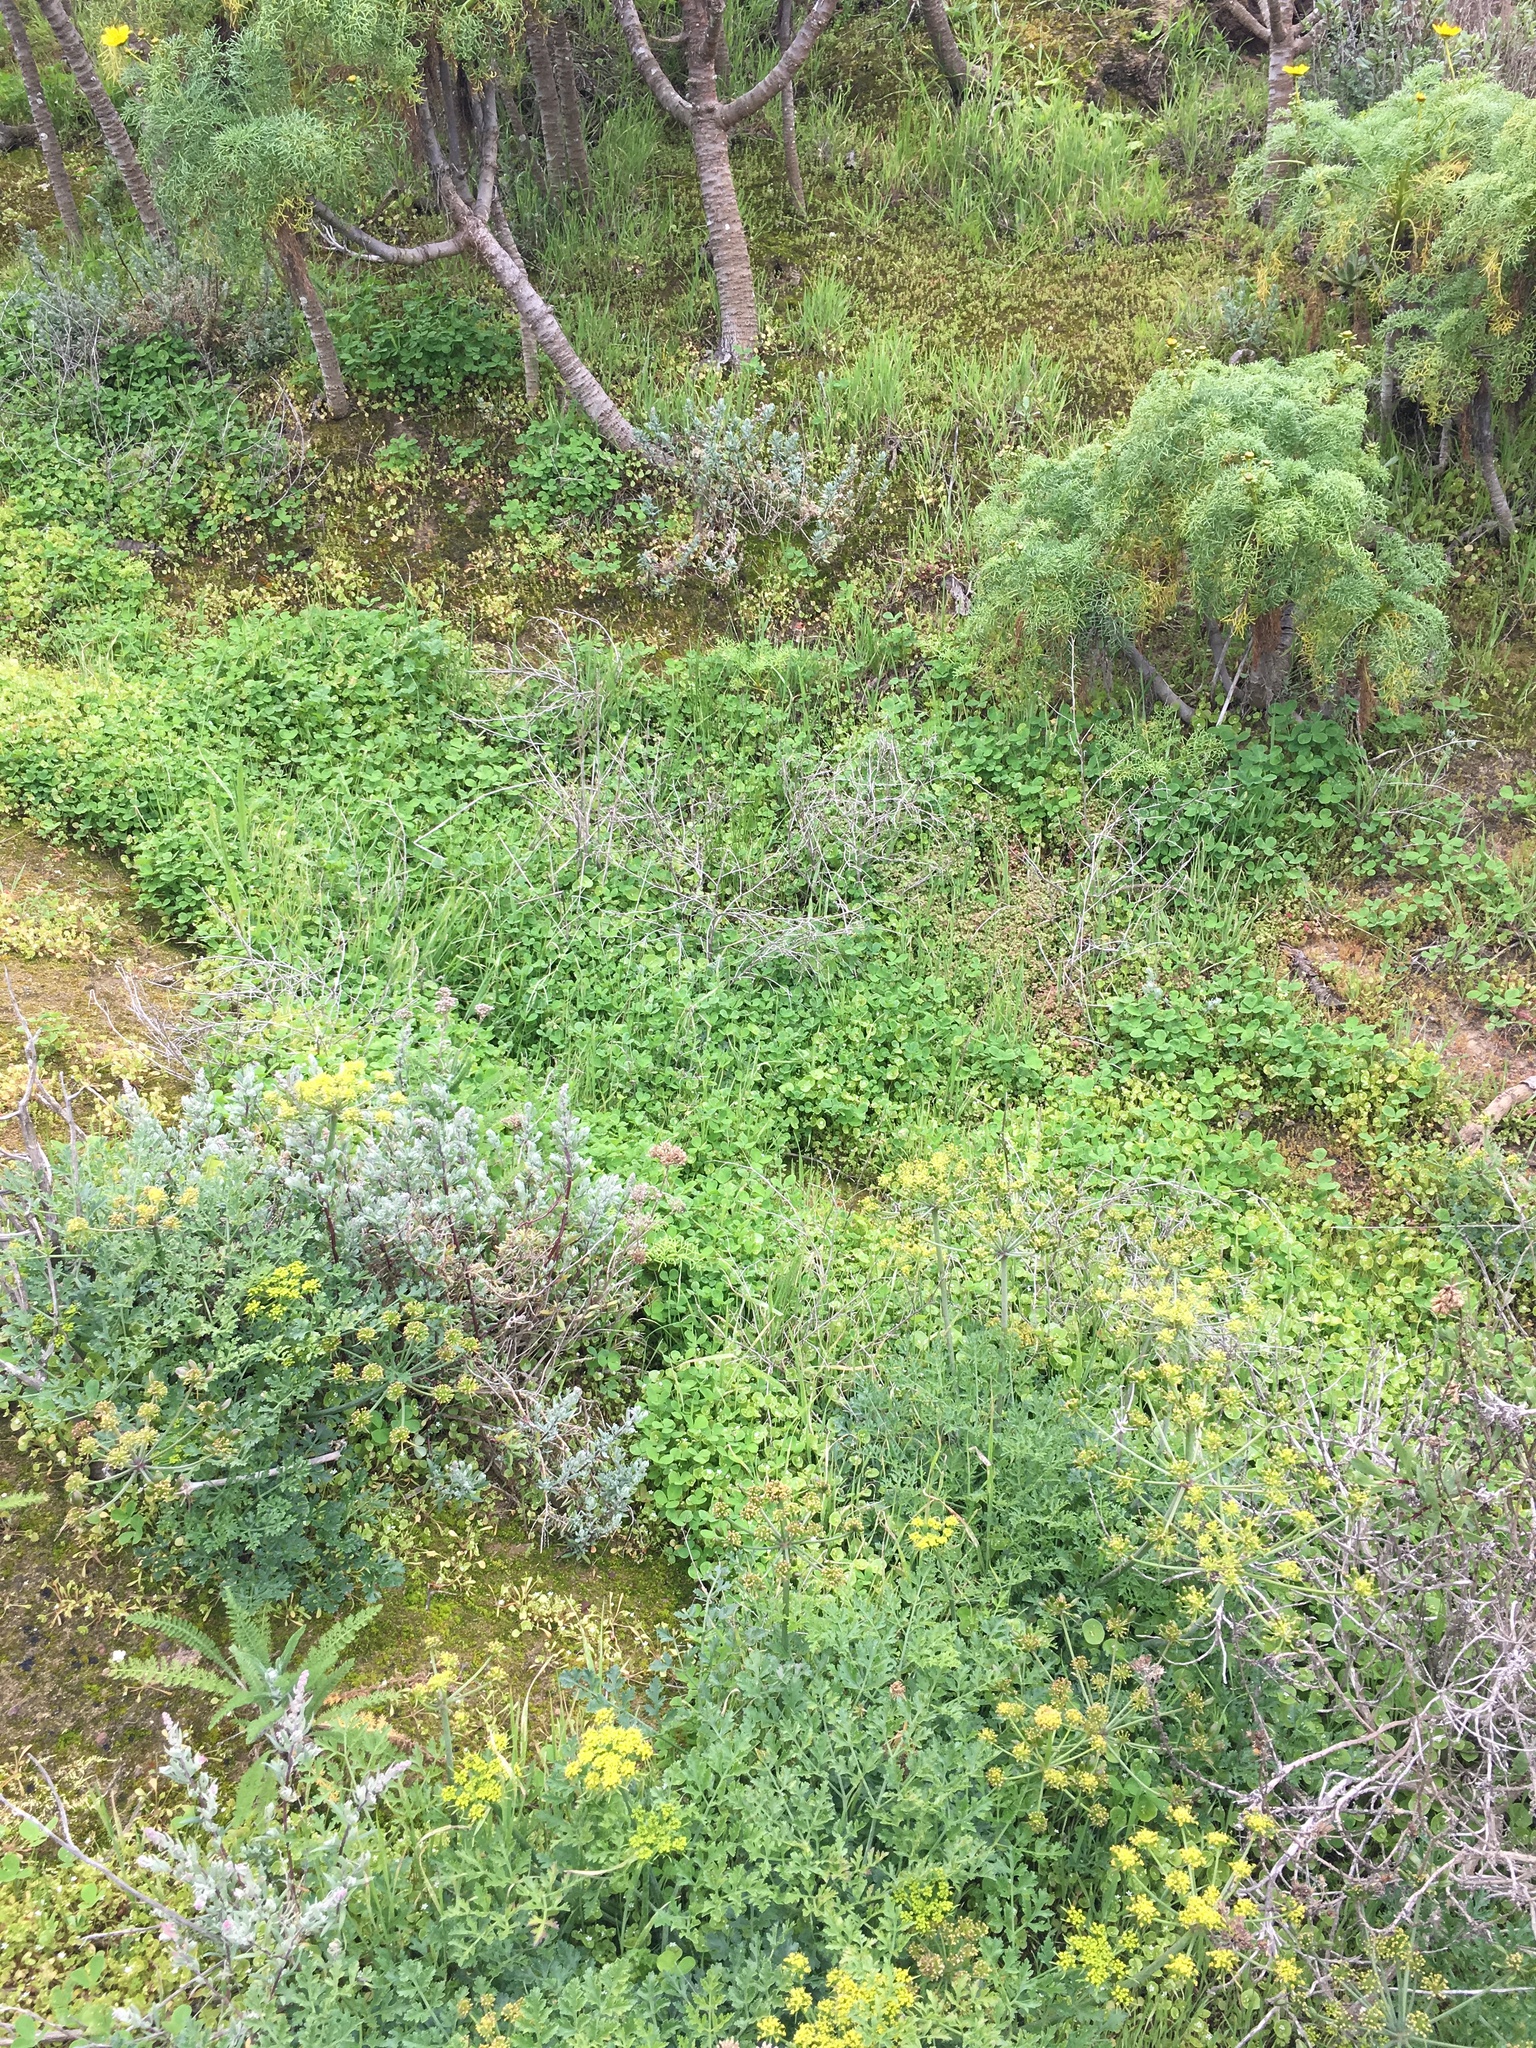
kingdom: Plantae
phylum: Tracheophyta
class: Magnoliopsida
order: Asterales
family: Asteraceae
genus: Coreopsis
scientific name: Coreopsis gigantea
